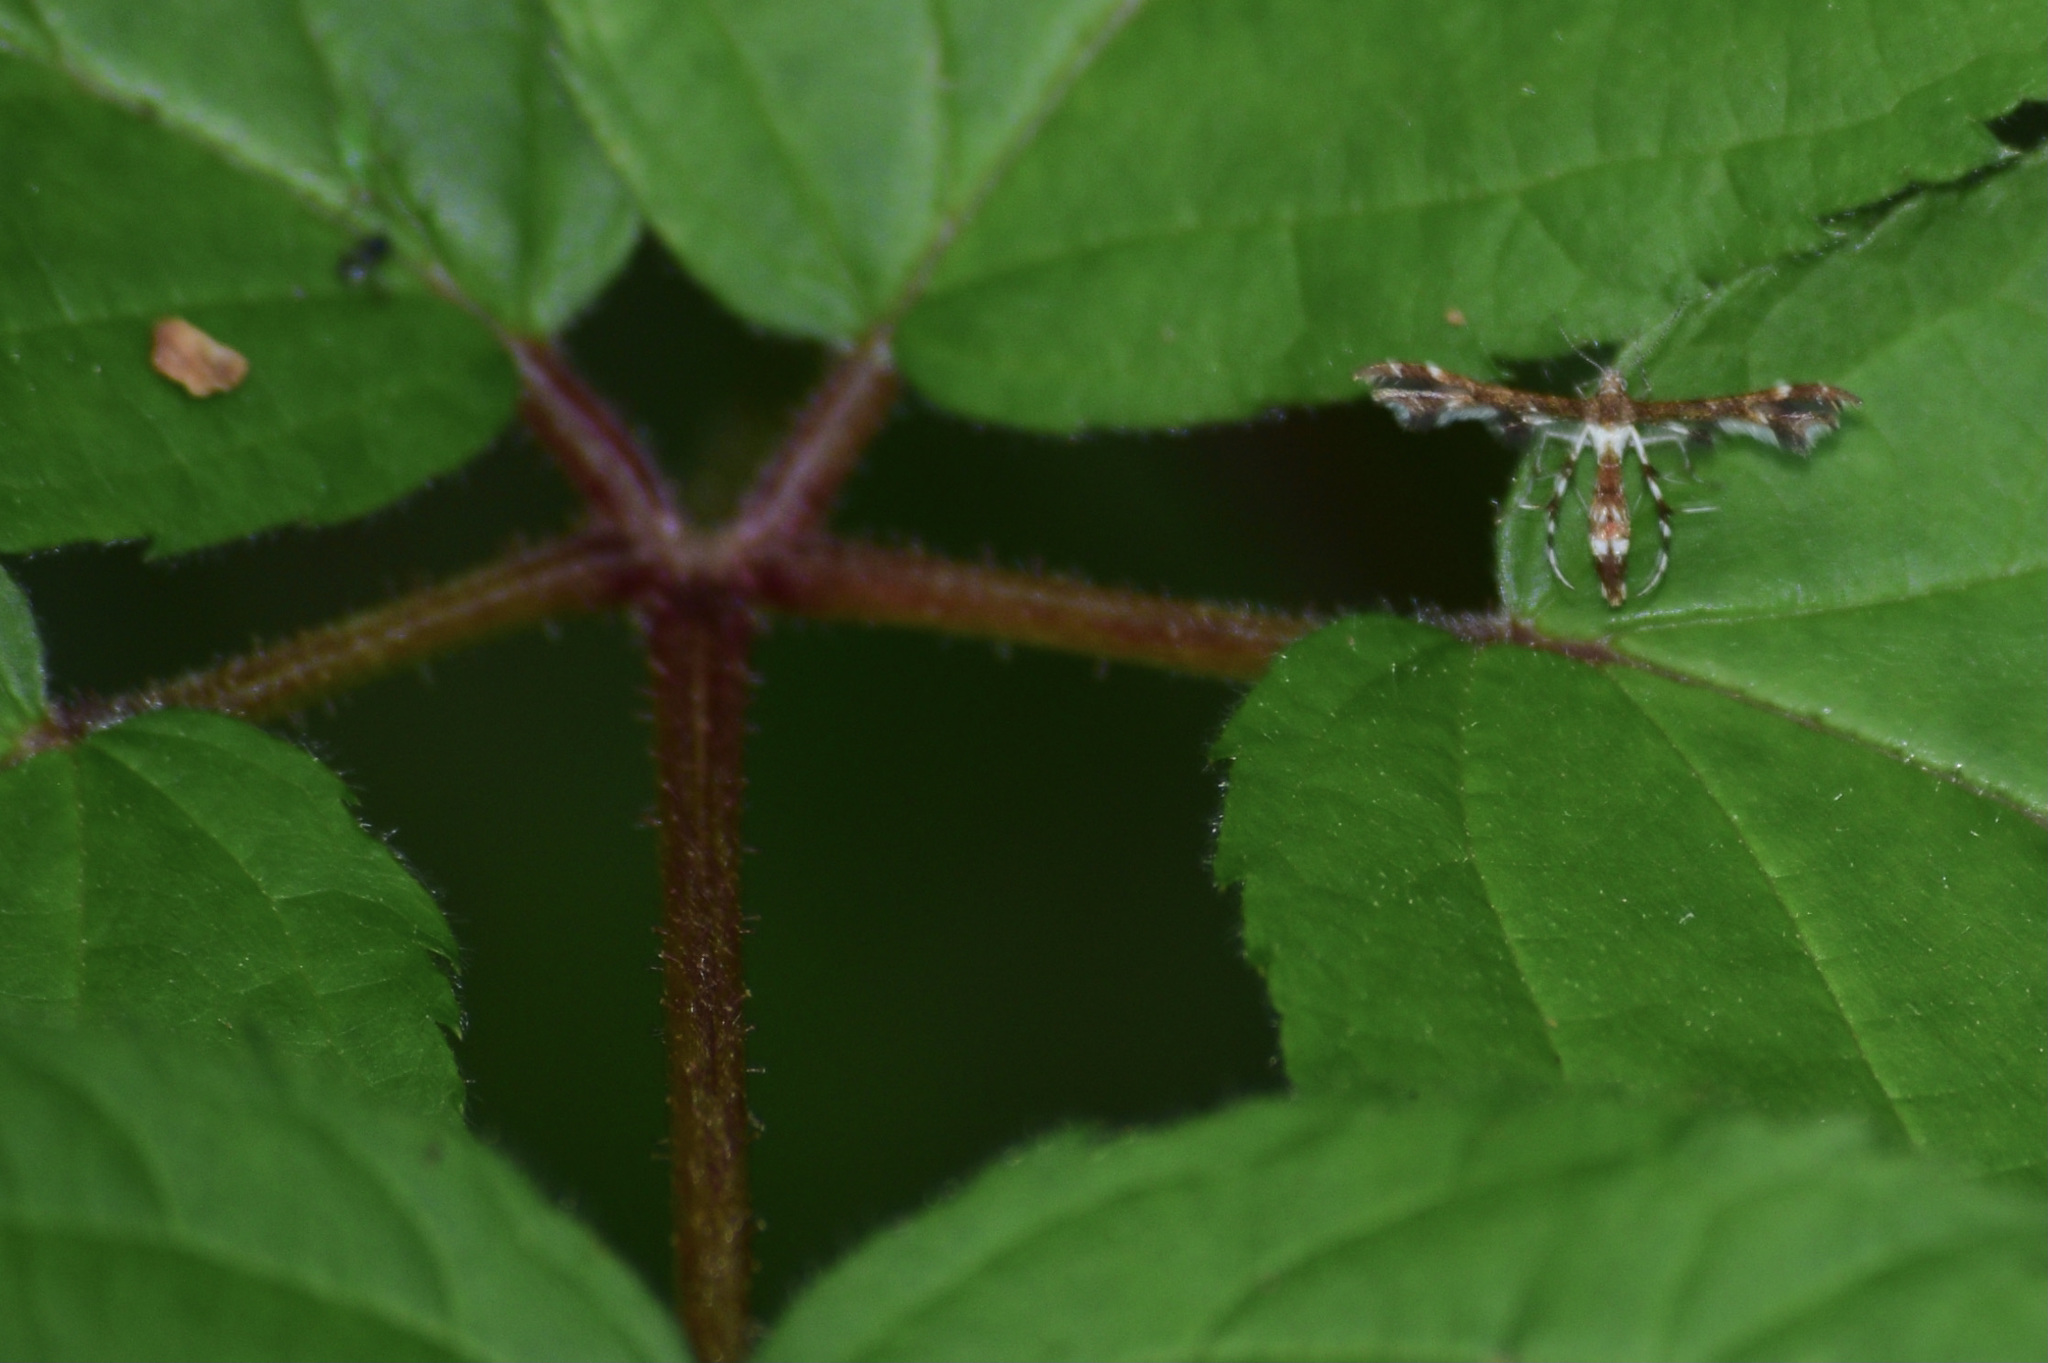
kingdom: Animalia
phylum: Arthropoda
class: Insecta
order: Lepidoptera
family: Pterophoridae
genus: Geina
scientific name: Geina
